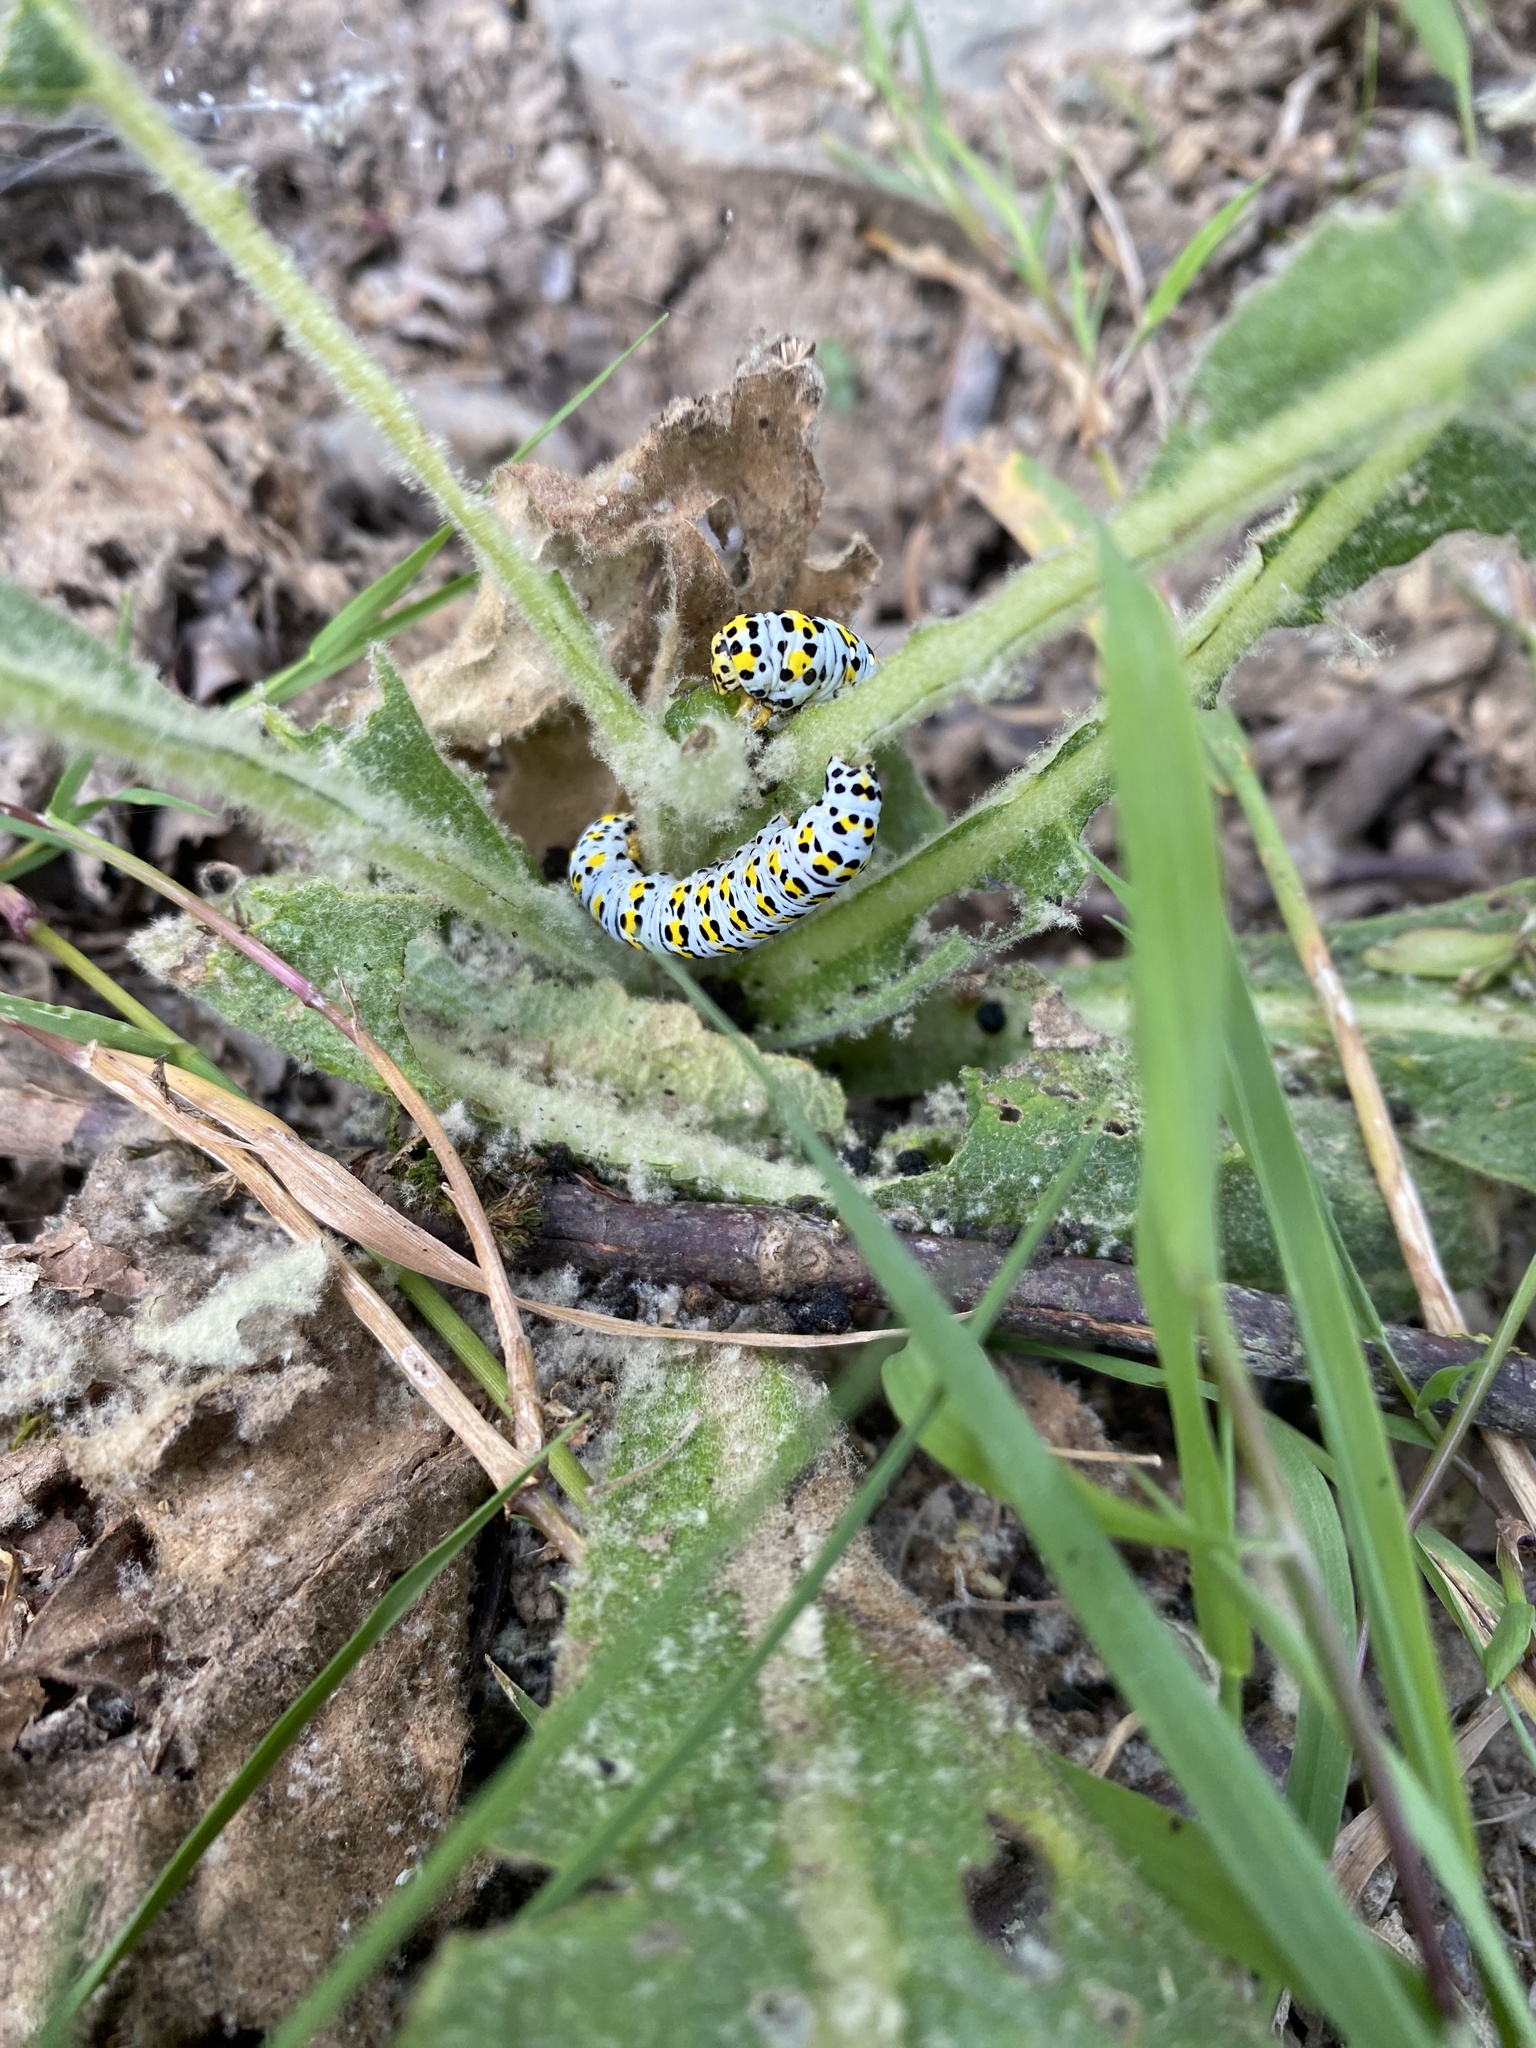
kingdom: Animalia
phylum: Arthropoda
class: Insecta
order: Lepidoptera
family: Noctuidae
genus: Cucullia
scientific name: Cucullia verbasci
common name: Mullein
